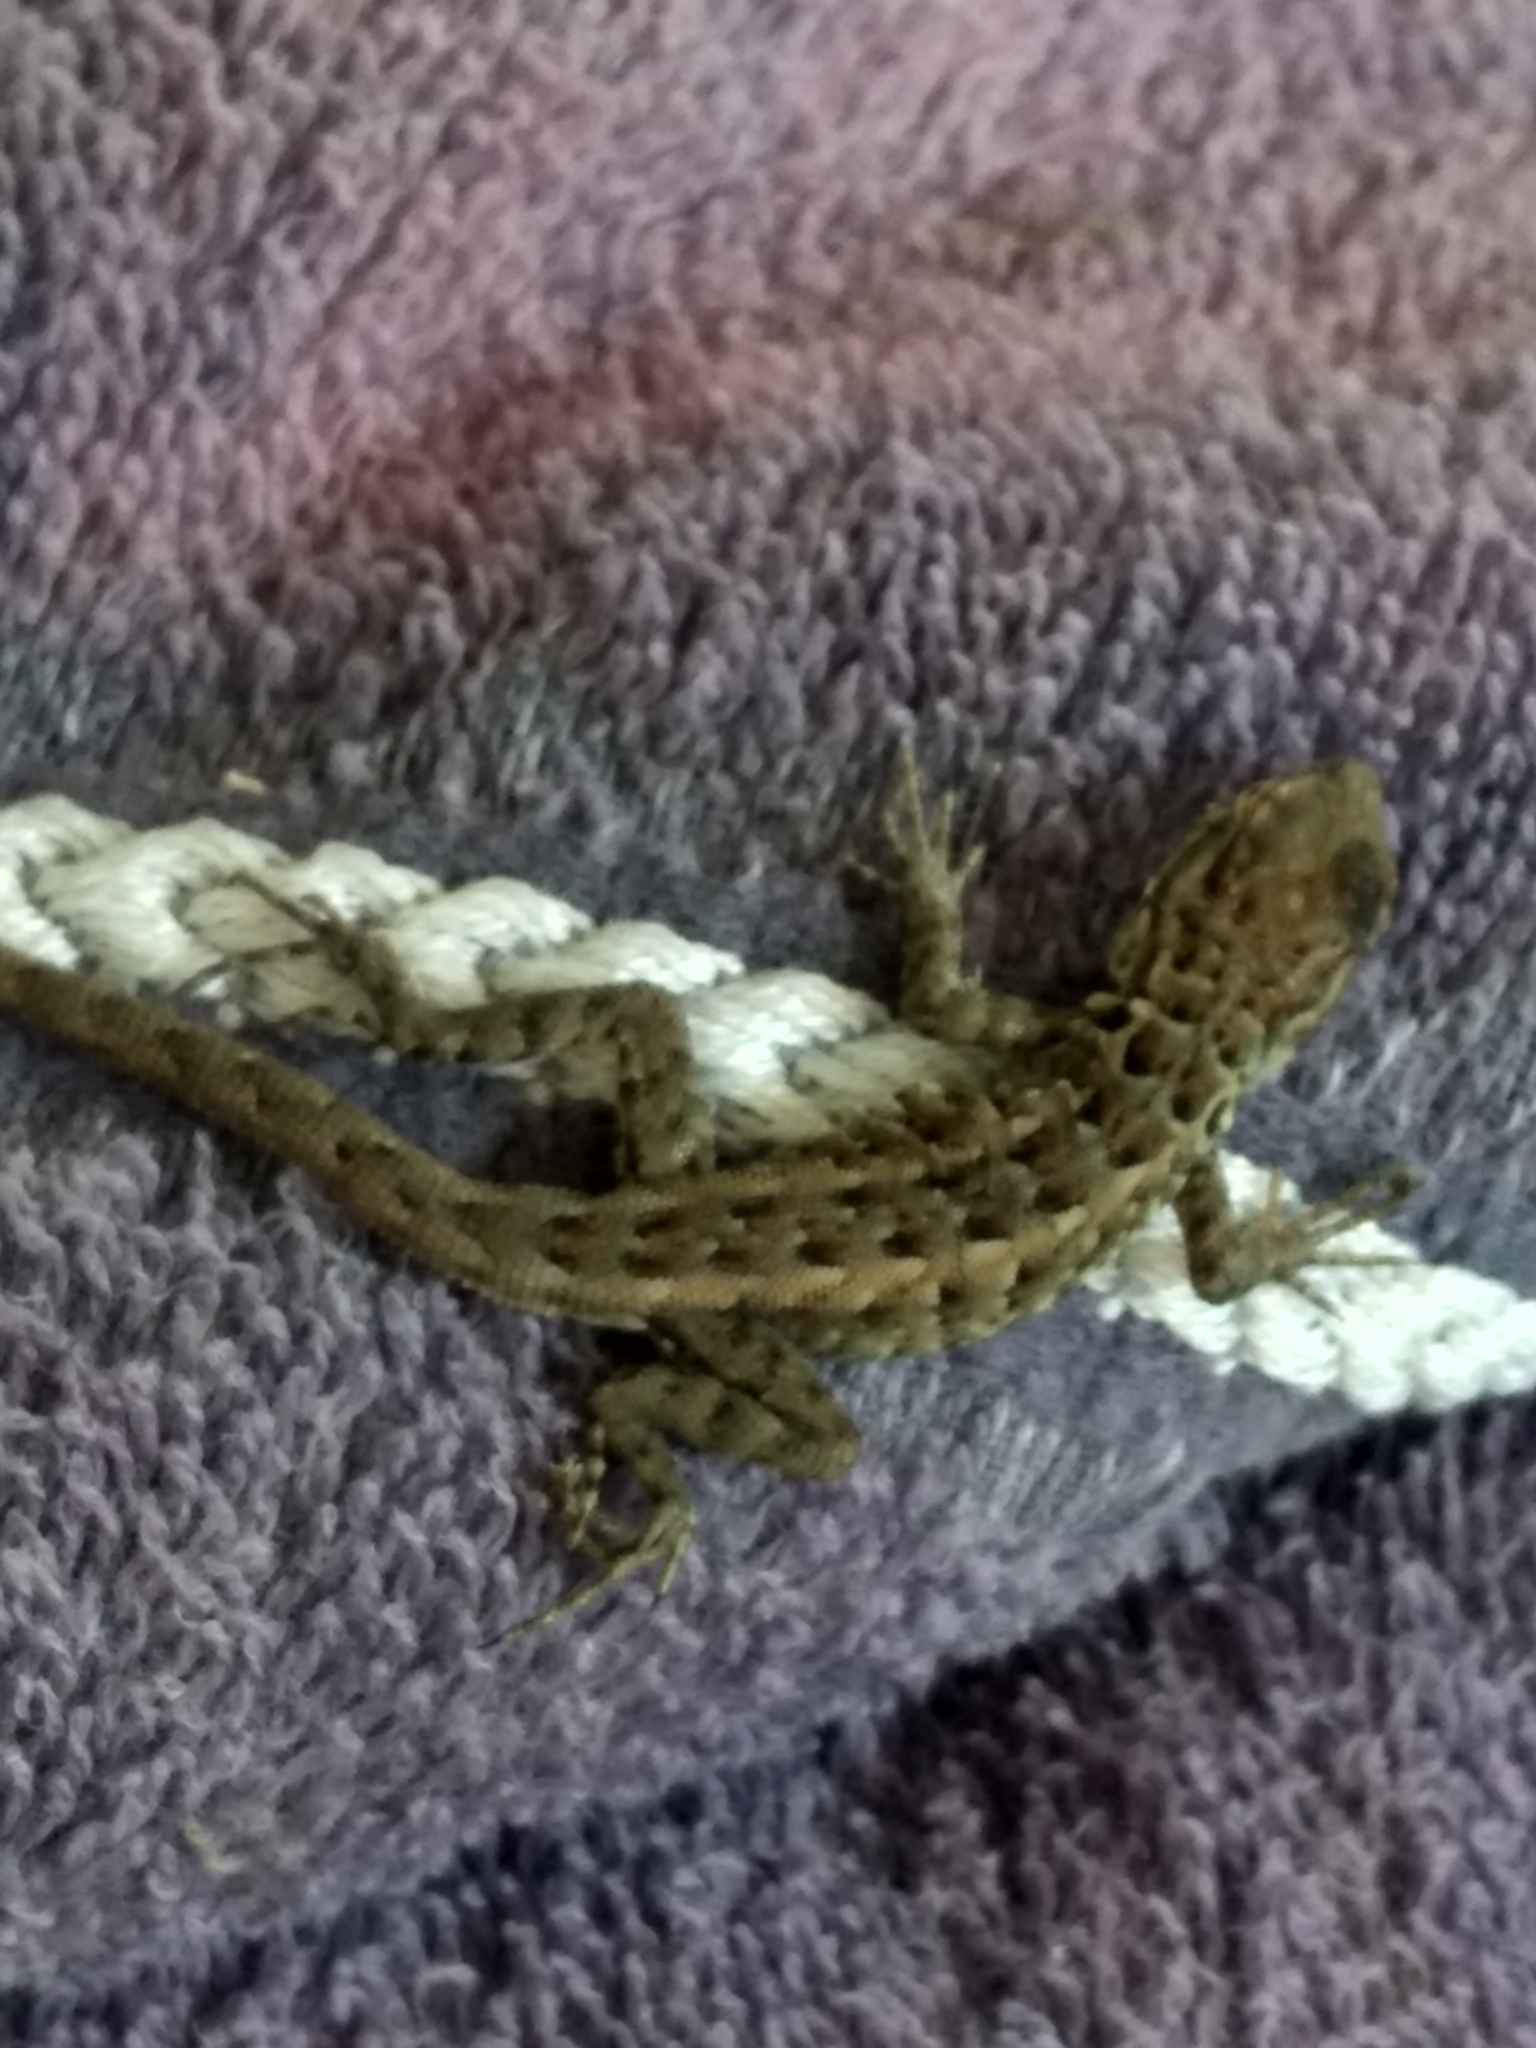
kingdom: Animalia
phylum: Chordata
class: Squamata
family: Phrynosomatidae
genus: Uta
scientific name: Uta stansburiana
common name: Side-blotched lizard
